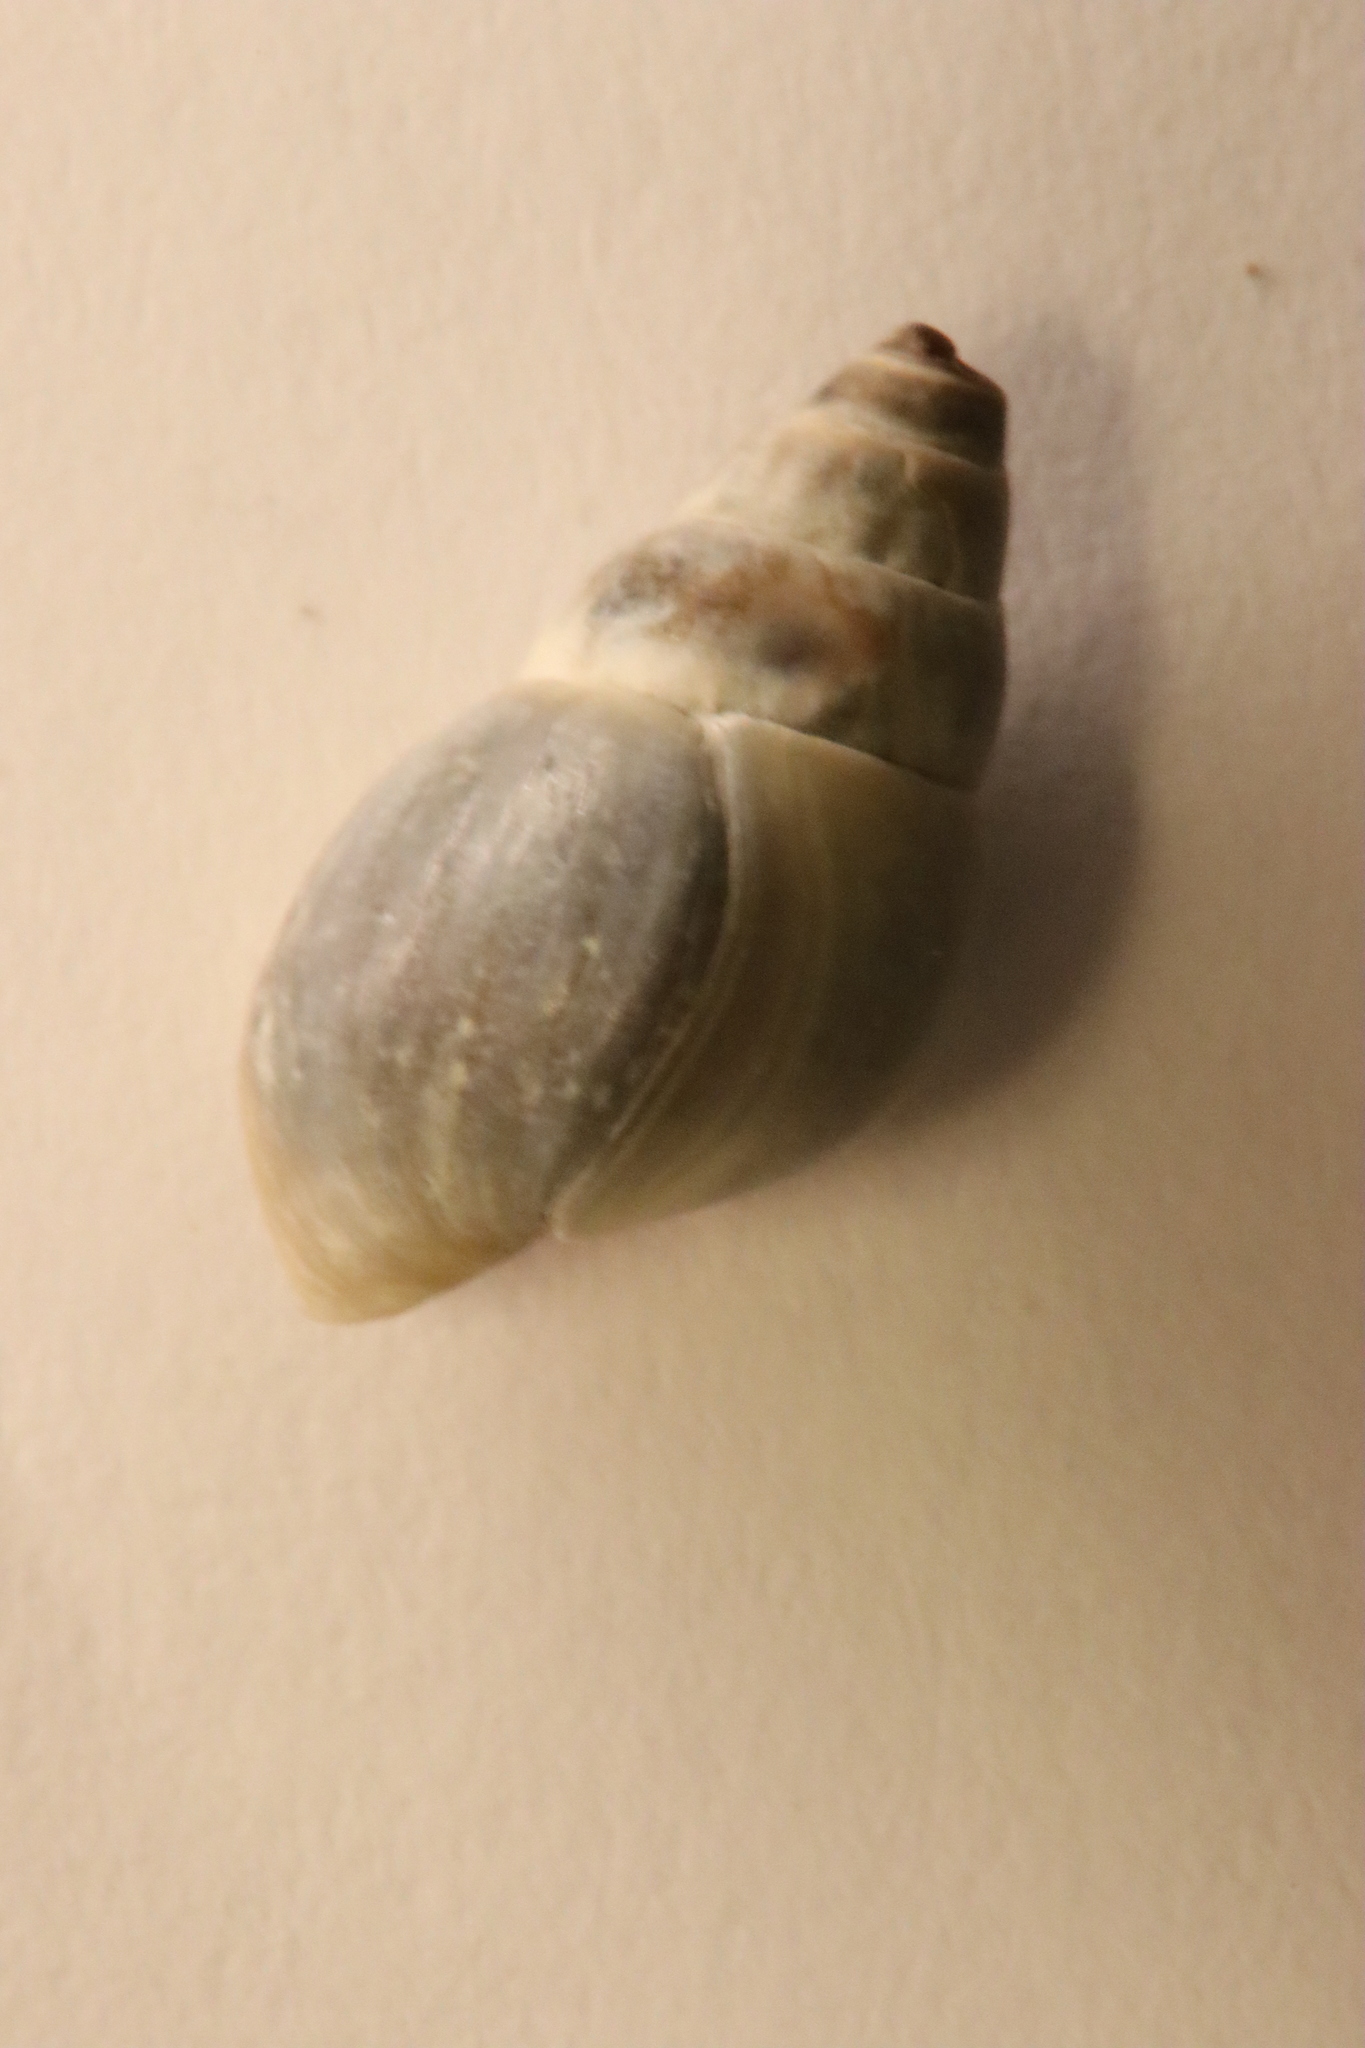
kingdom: Animalia
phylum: Mollusca
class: Gastropoda
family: Pleuroceridae
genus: Elimia
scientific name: Elimia livescens
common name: Liver elimia
